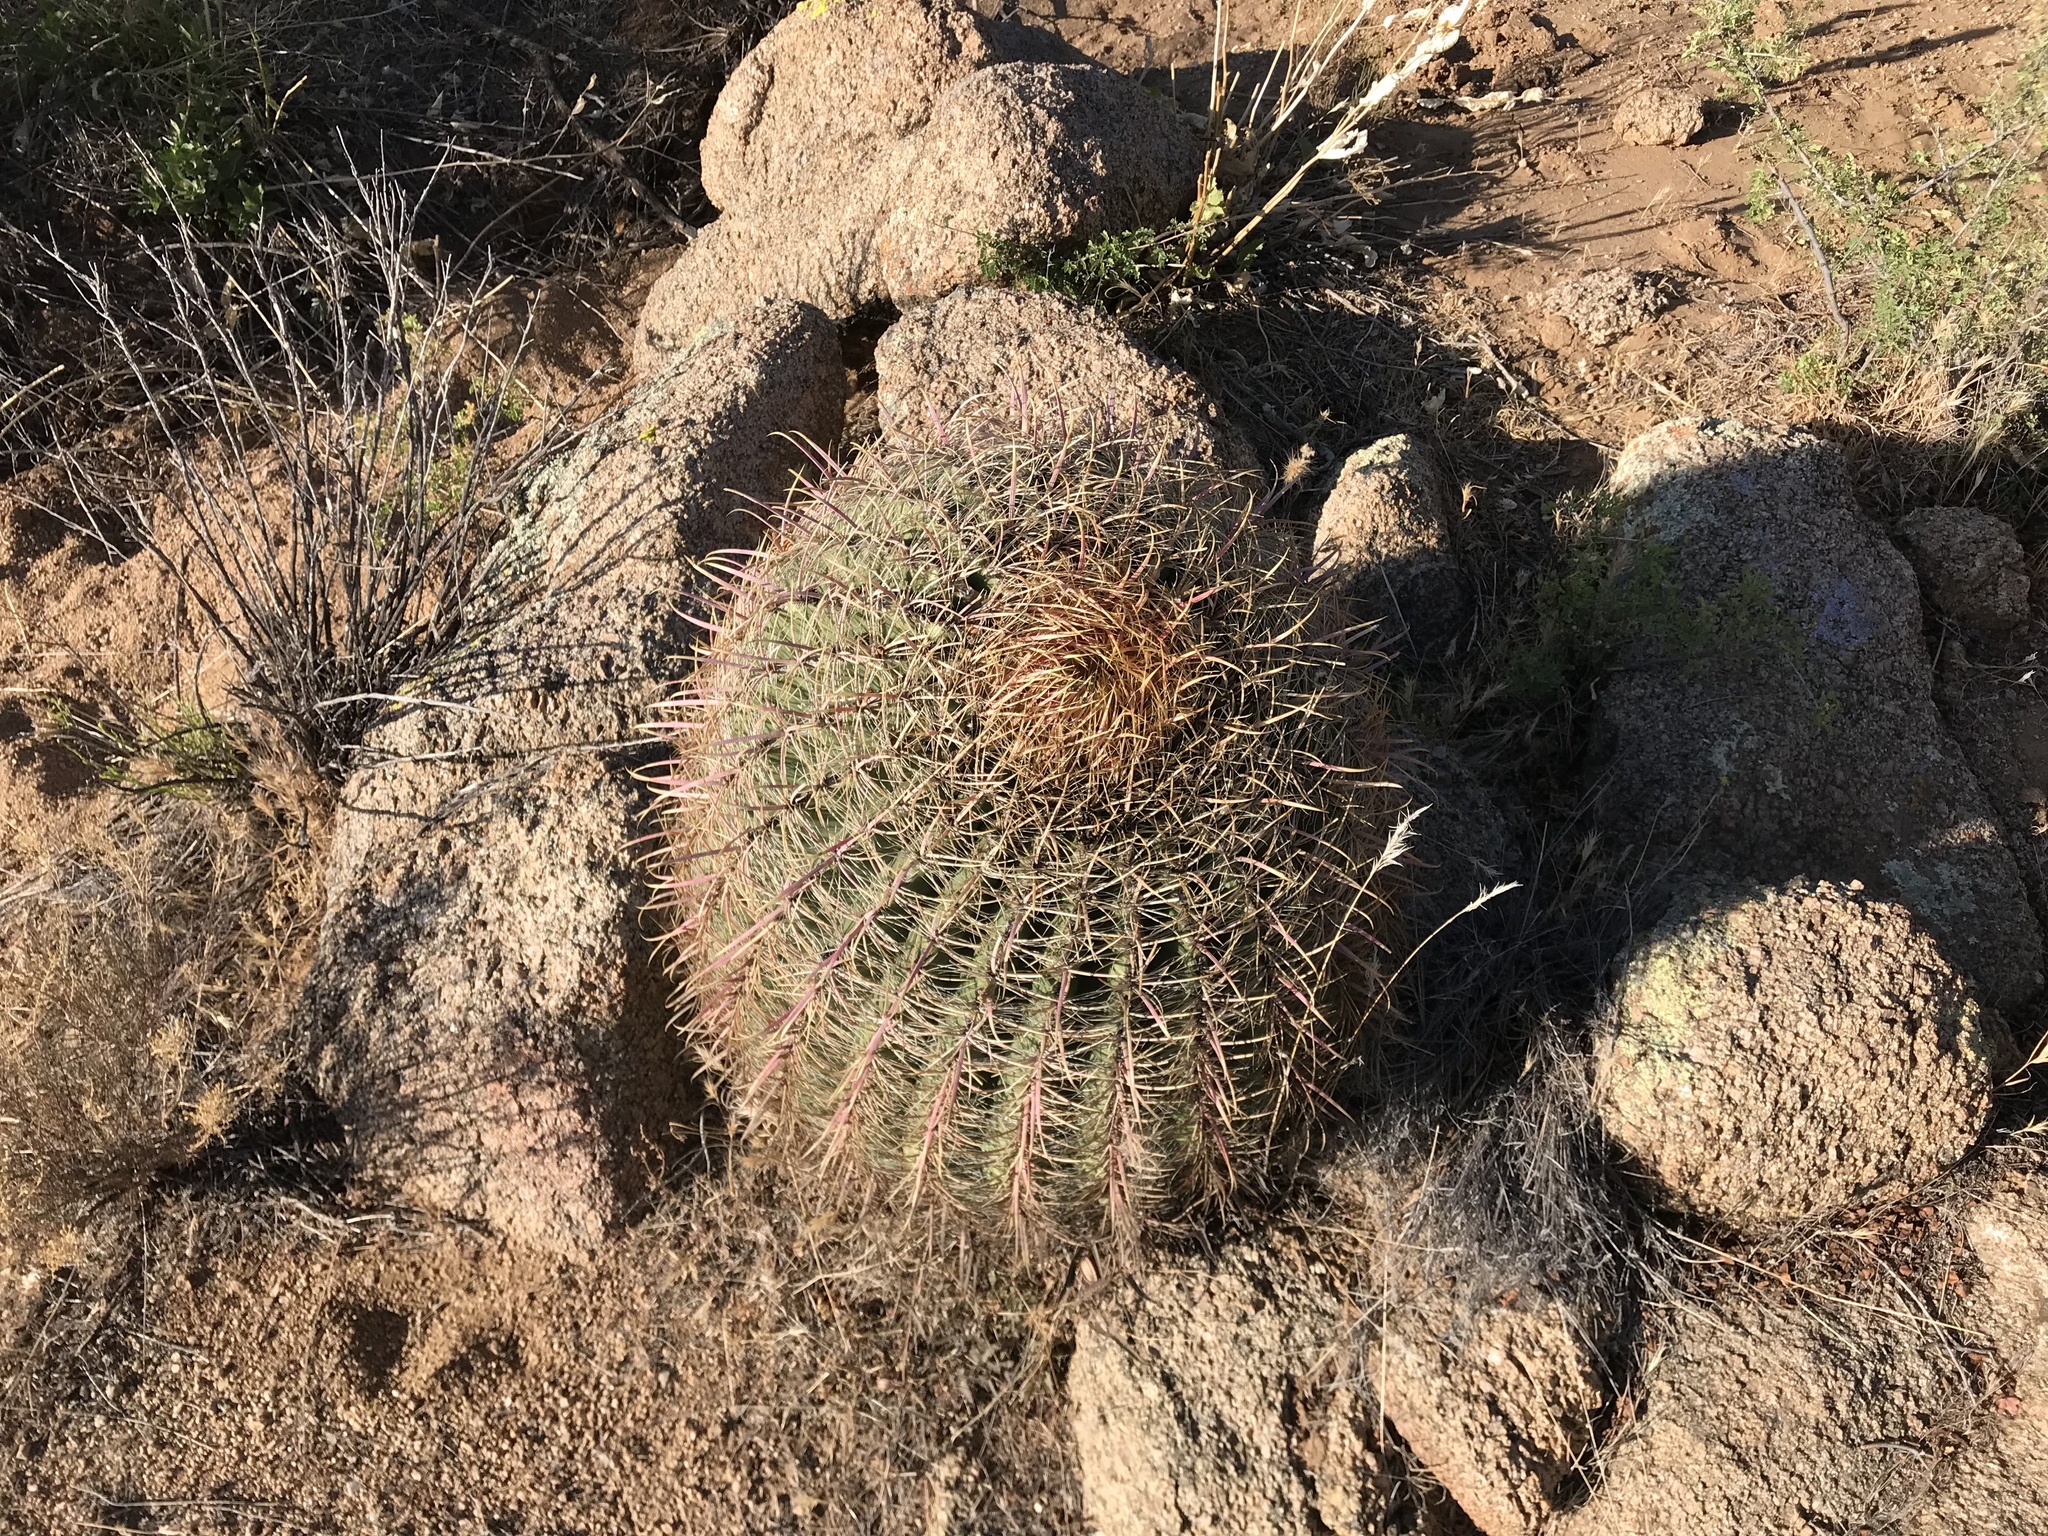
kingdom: Plantae
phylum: Tracheophyta
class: Magnoliopsida
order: Caryophyllales
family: Cactaceae
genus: Ferocactus
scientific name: Ferocactus cylindraceus
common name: California barrel cactus
